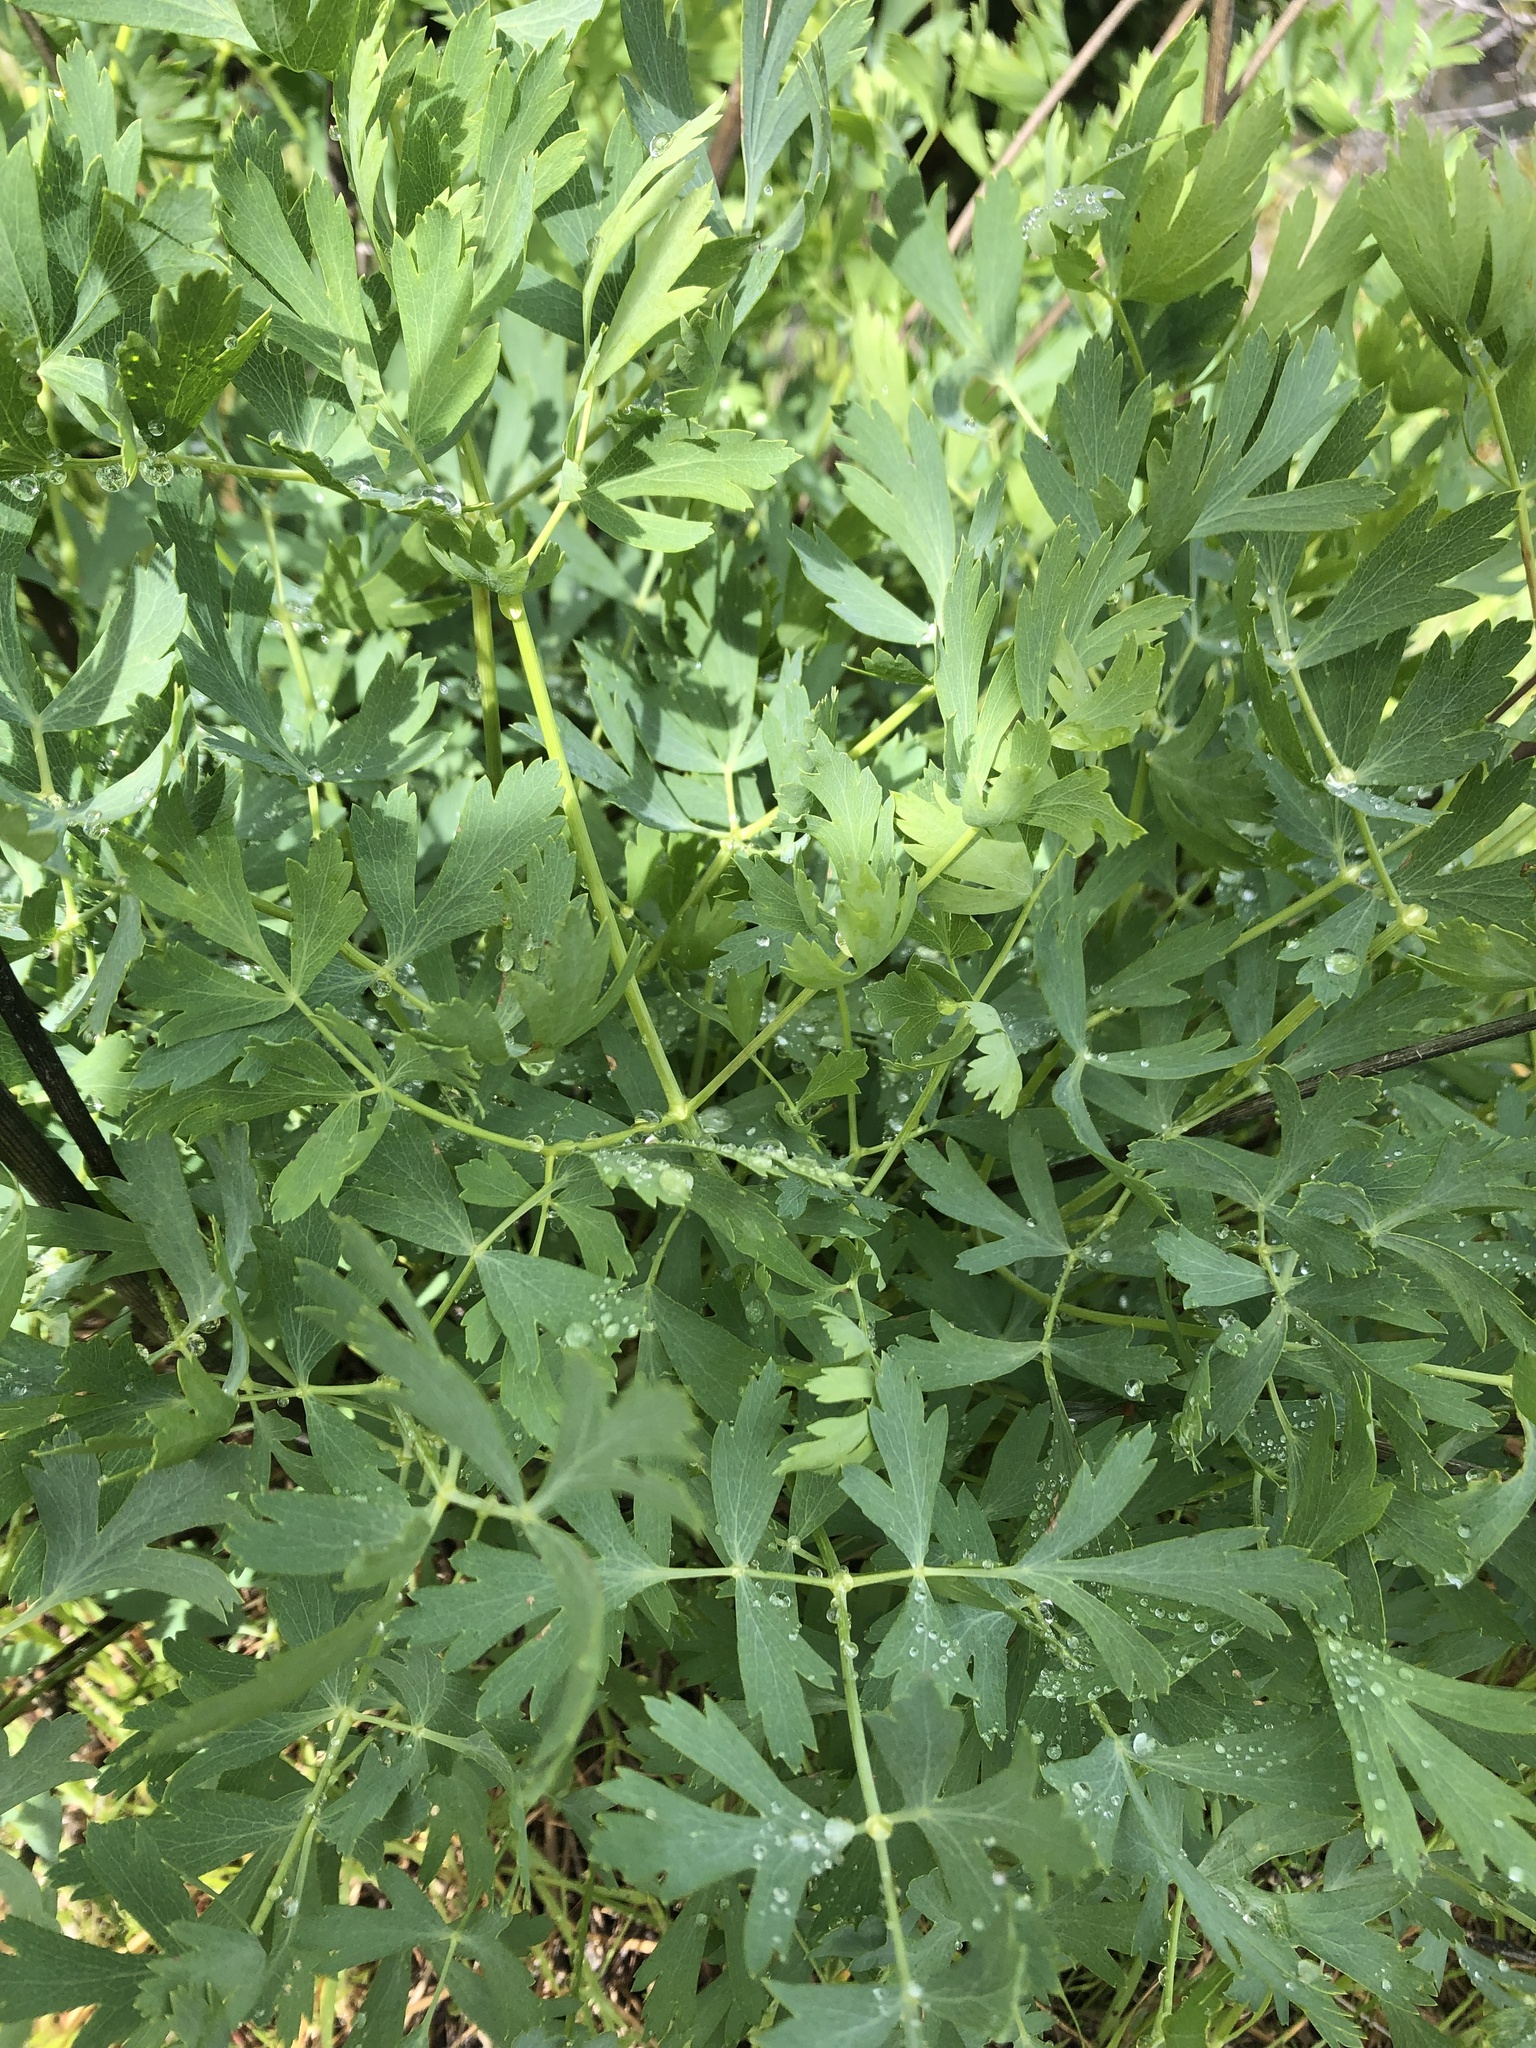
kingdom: Plantae
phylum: Tracheophyta
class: Magnoliopsida
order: Apiales
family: Apiaceae
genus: Lomatium
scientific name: Lomatium californicum
